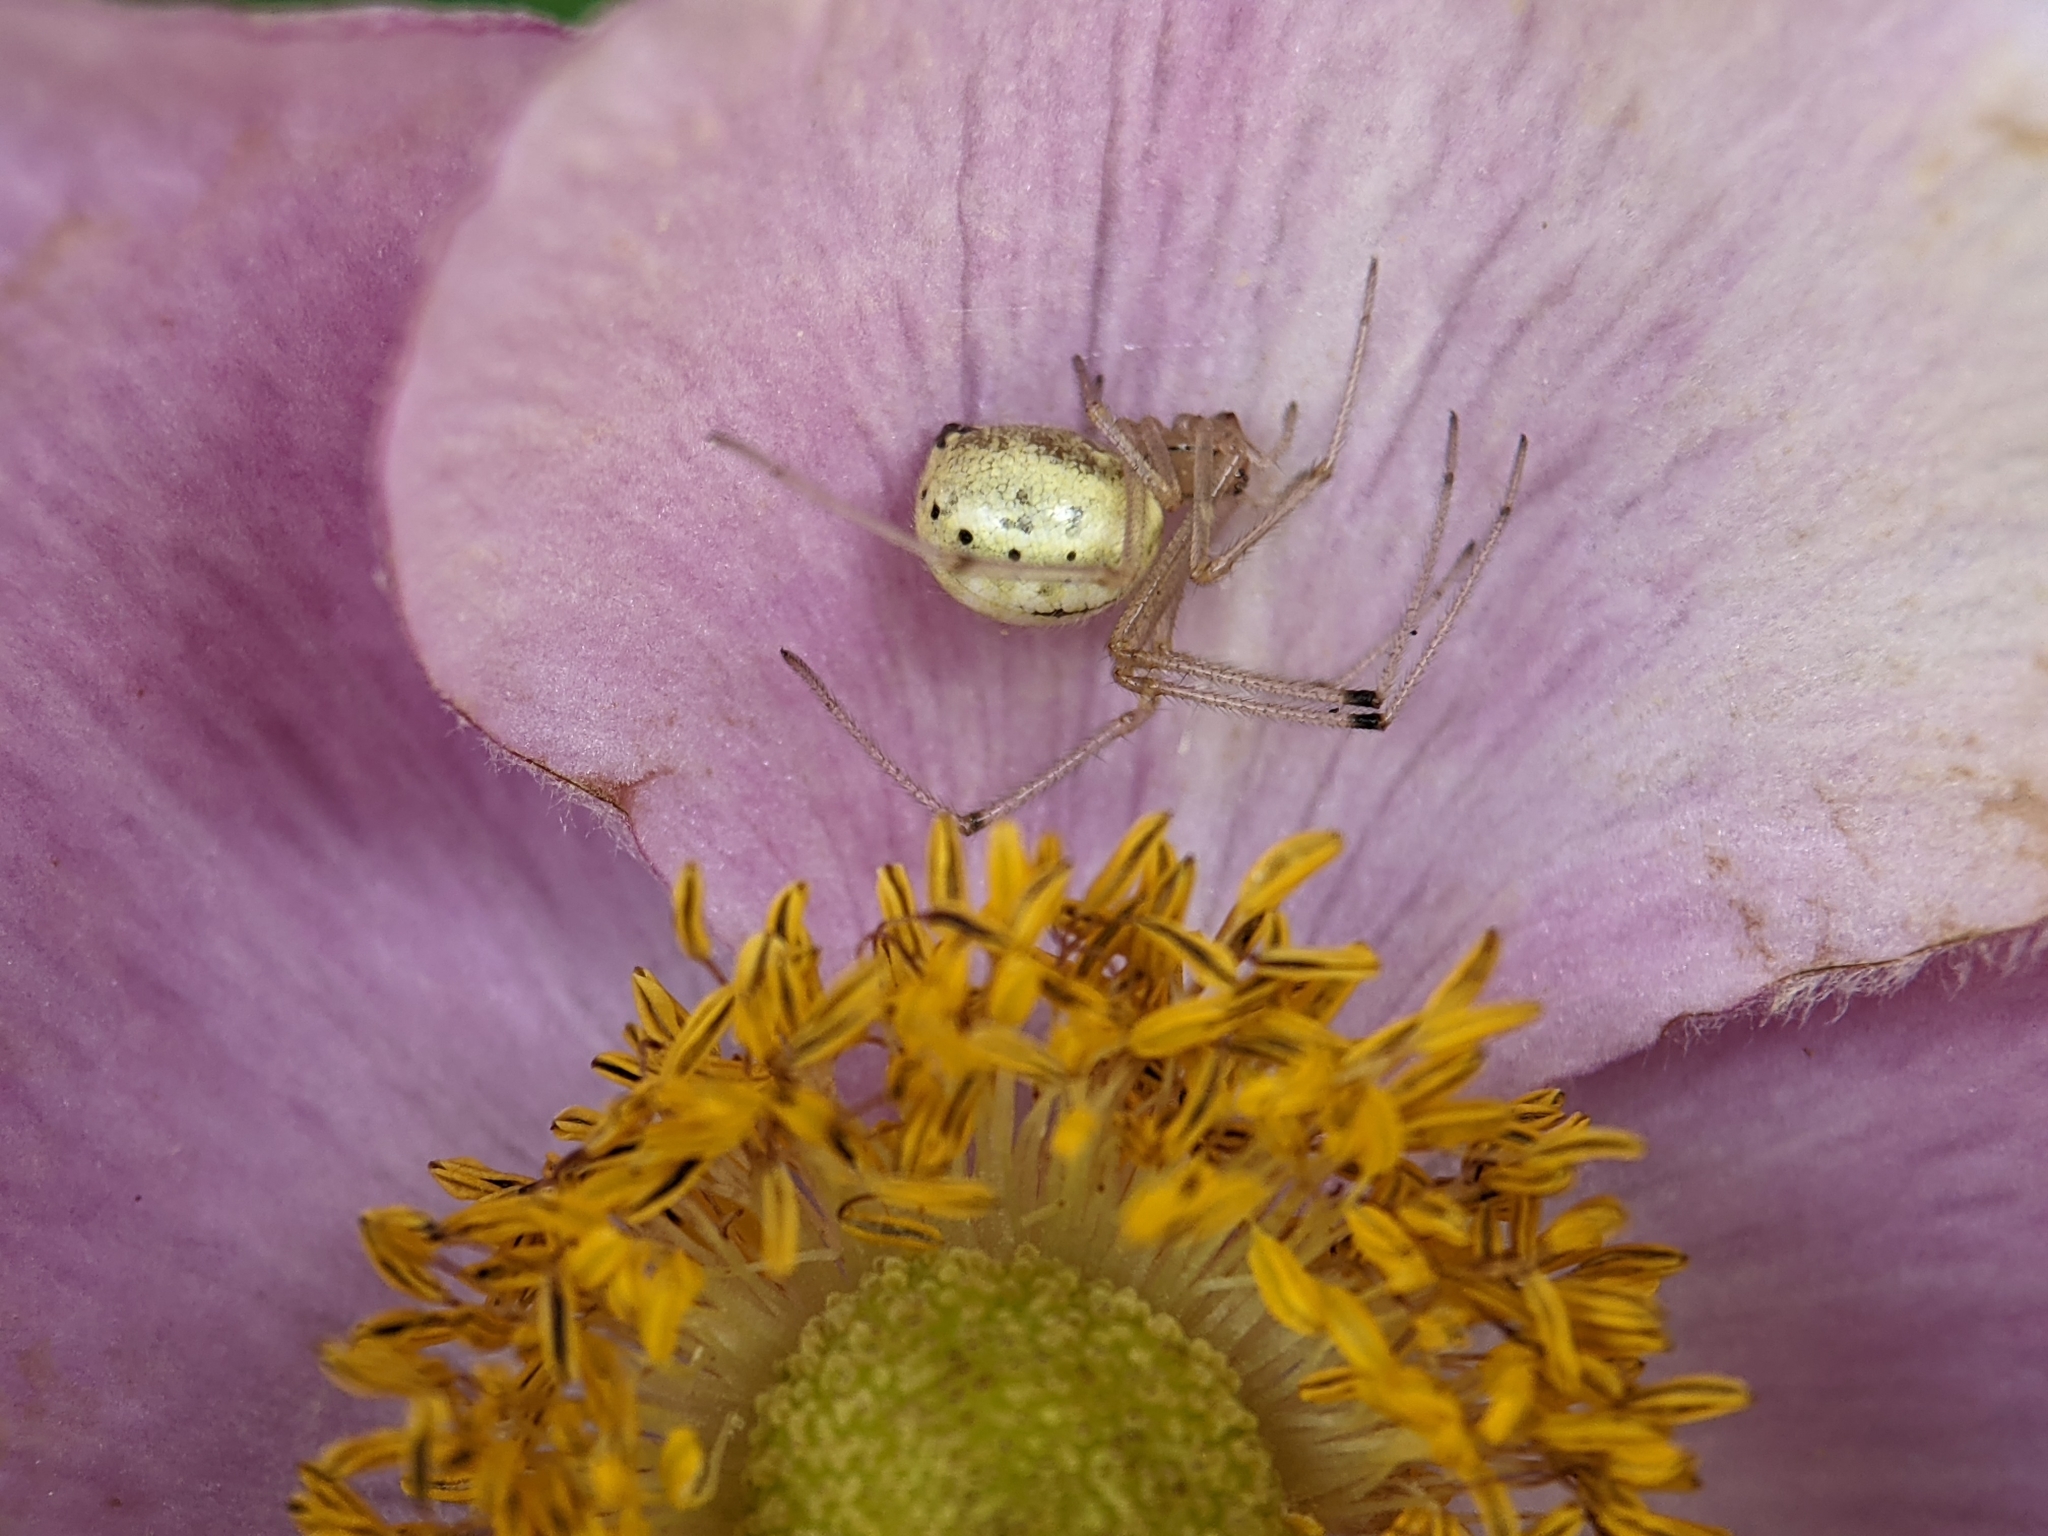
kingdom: Animalia
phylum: Arthropoda
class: Arachnida
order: Araneae
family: Theridiidae
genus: Enoplognatha
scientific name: Enoplognatha
